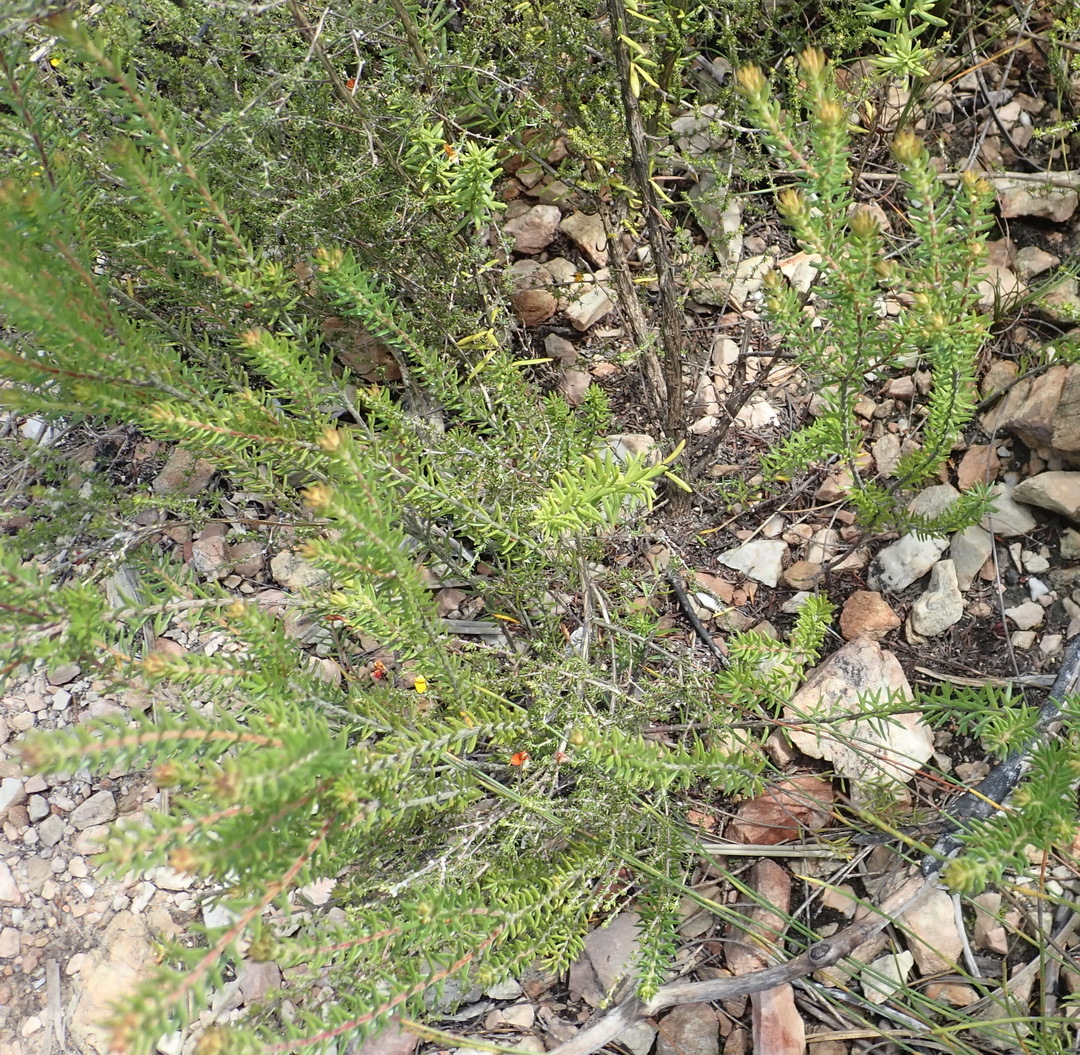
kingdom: Plantae
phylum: Tracheophyta
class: Magnoliopsida
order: Sapindales
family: Rutaceae
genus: Acmadenia
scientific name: Acmadenia alternifolia
